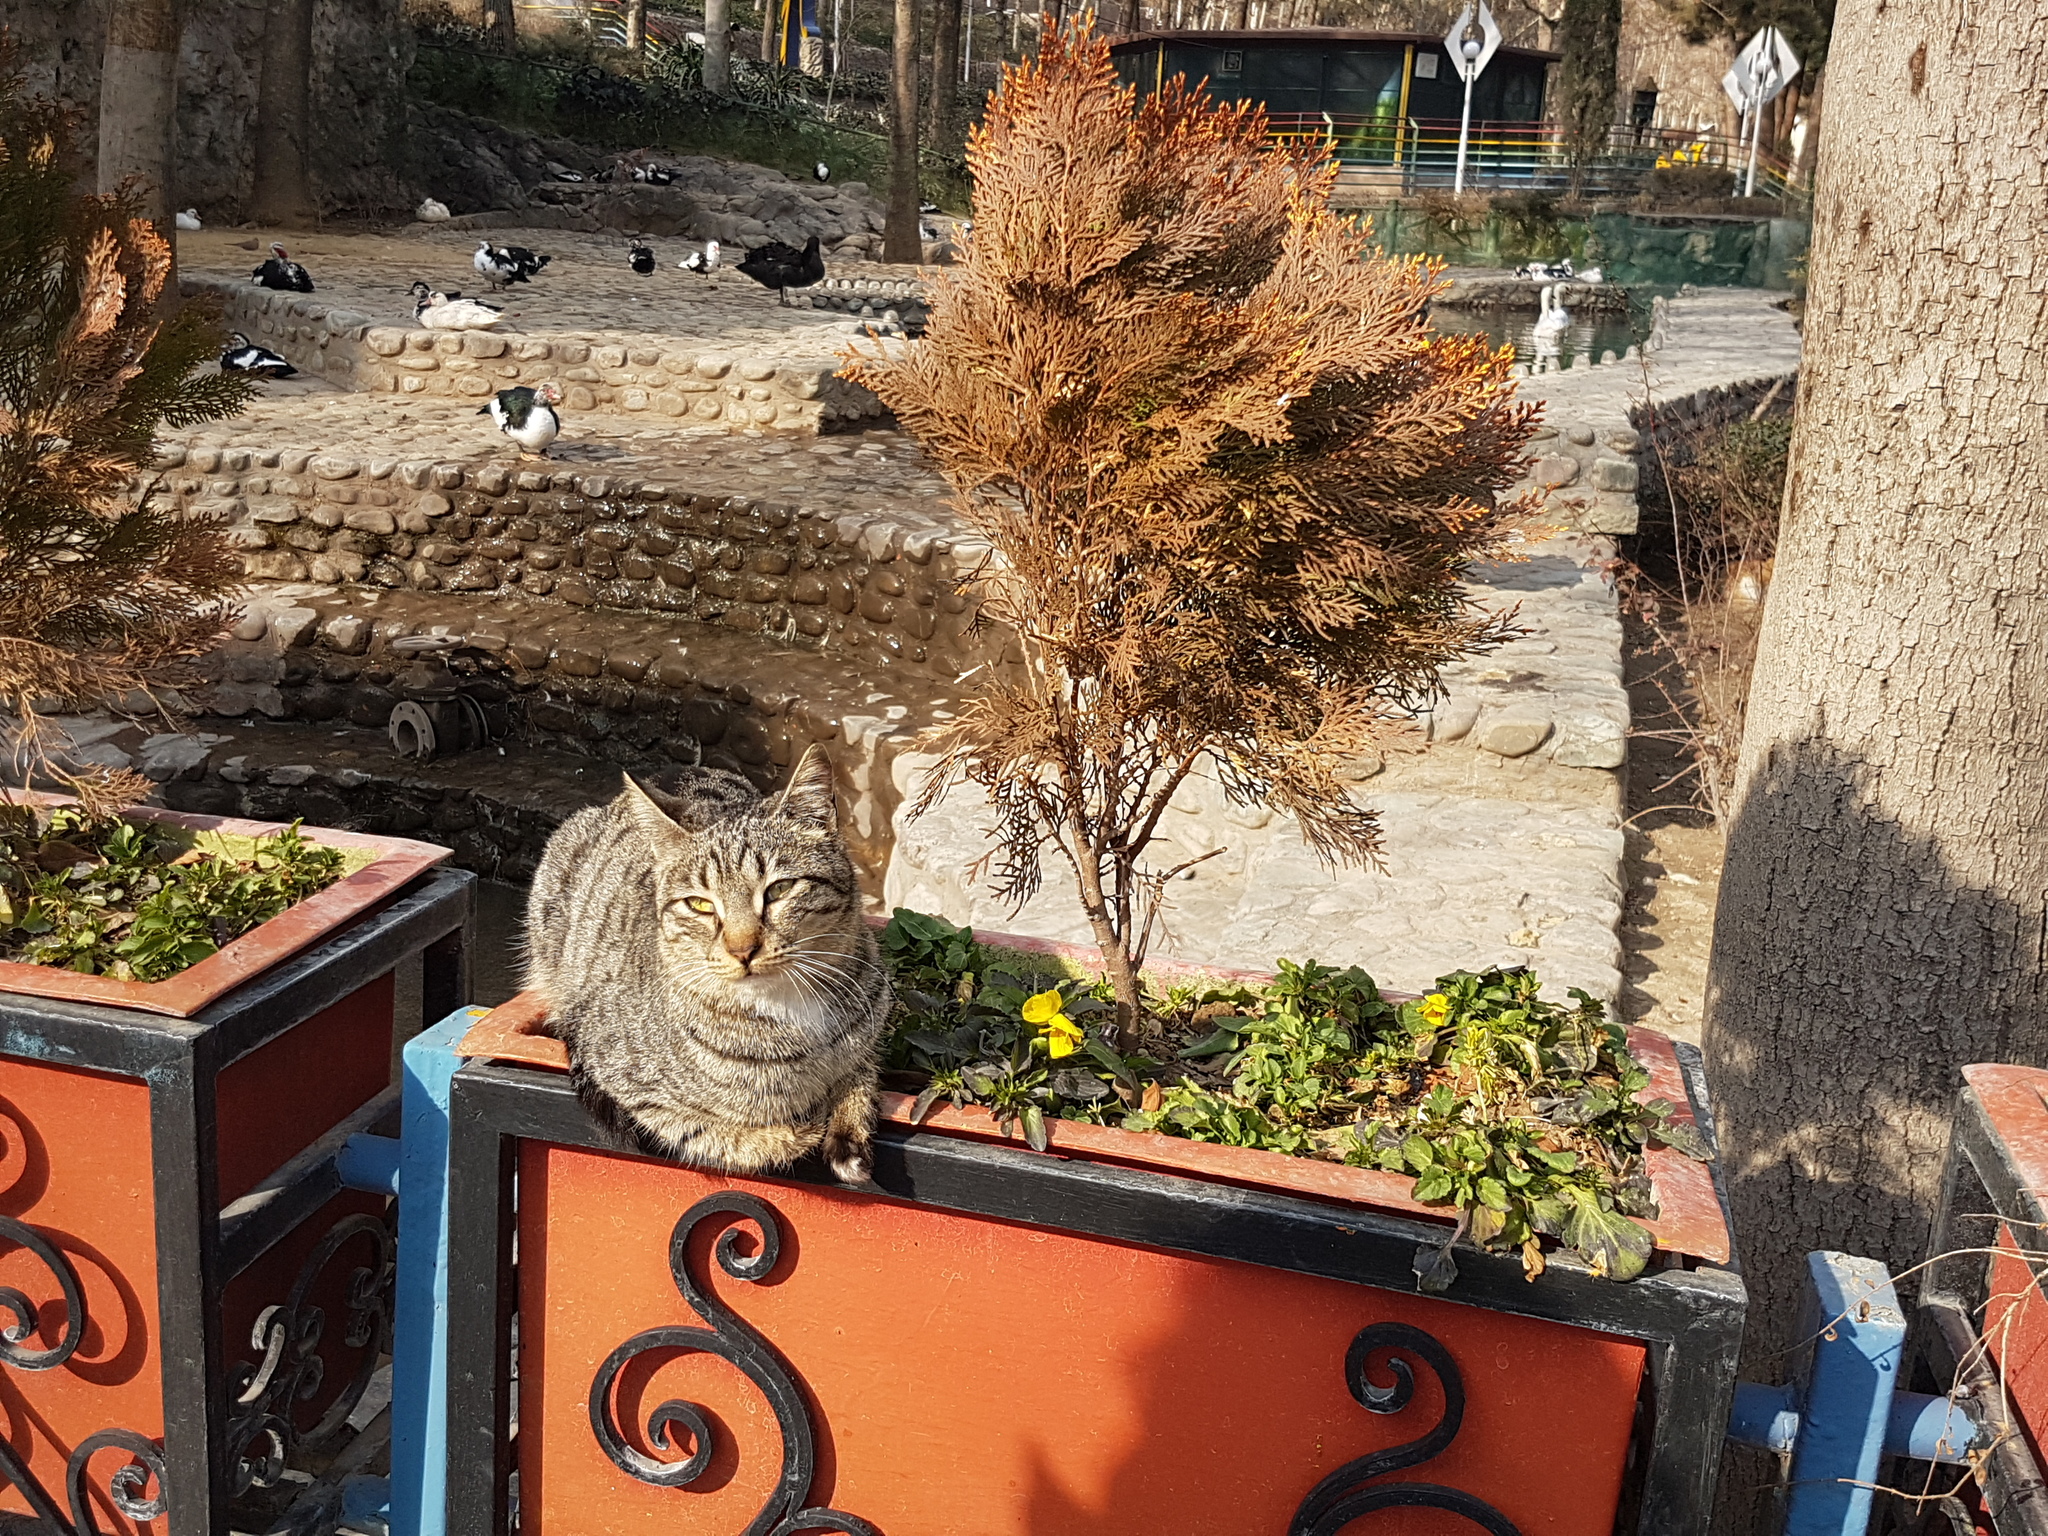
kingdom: Animalia
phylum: Chordata
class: Mammalia
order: Carnivora
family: Felidae
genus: Felis
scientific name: Felis catus
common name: Domestic cat
